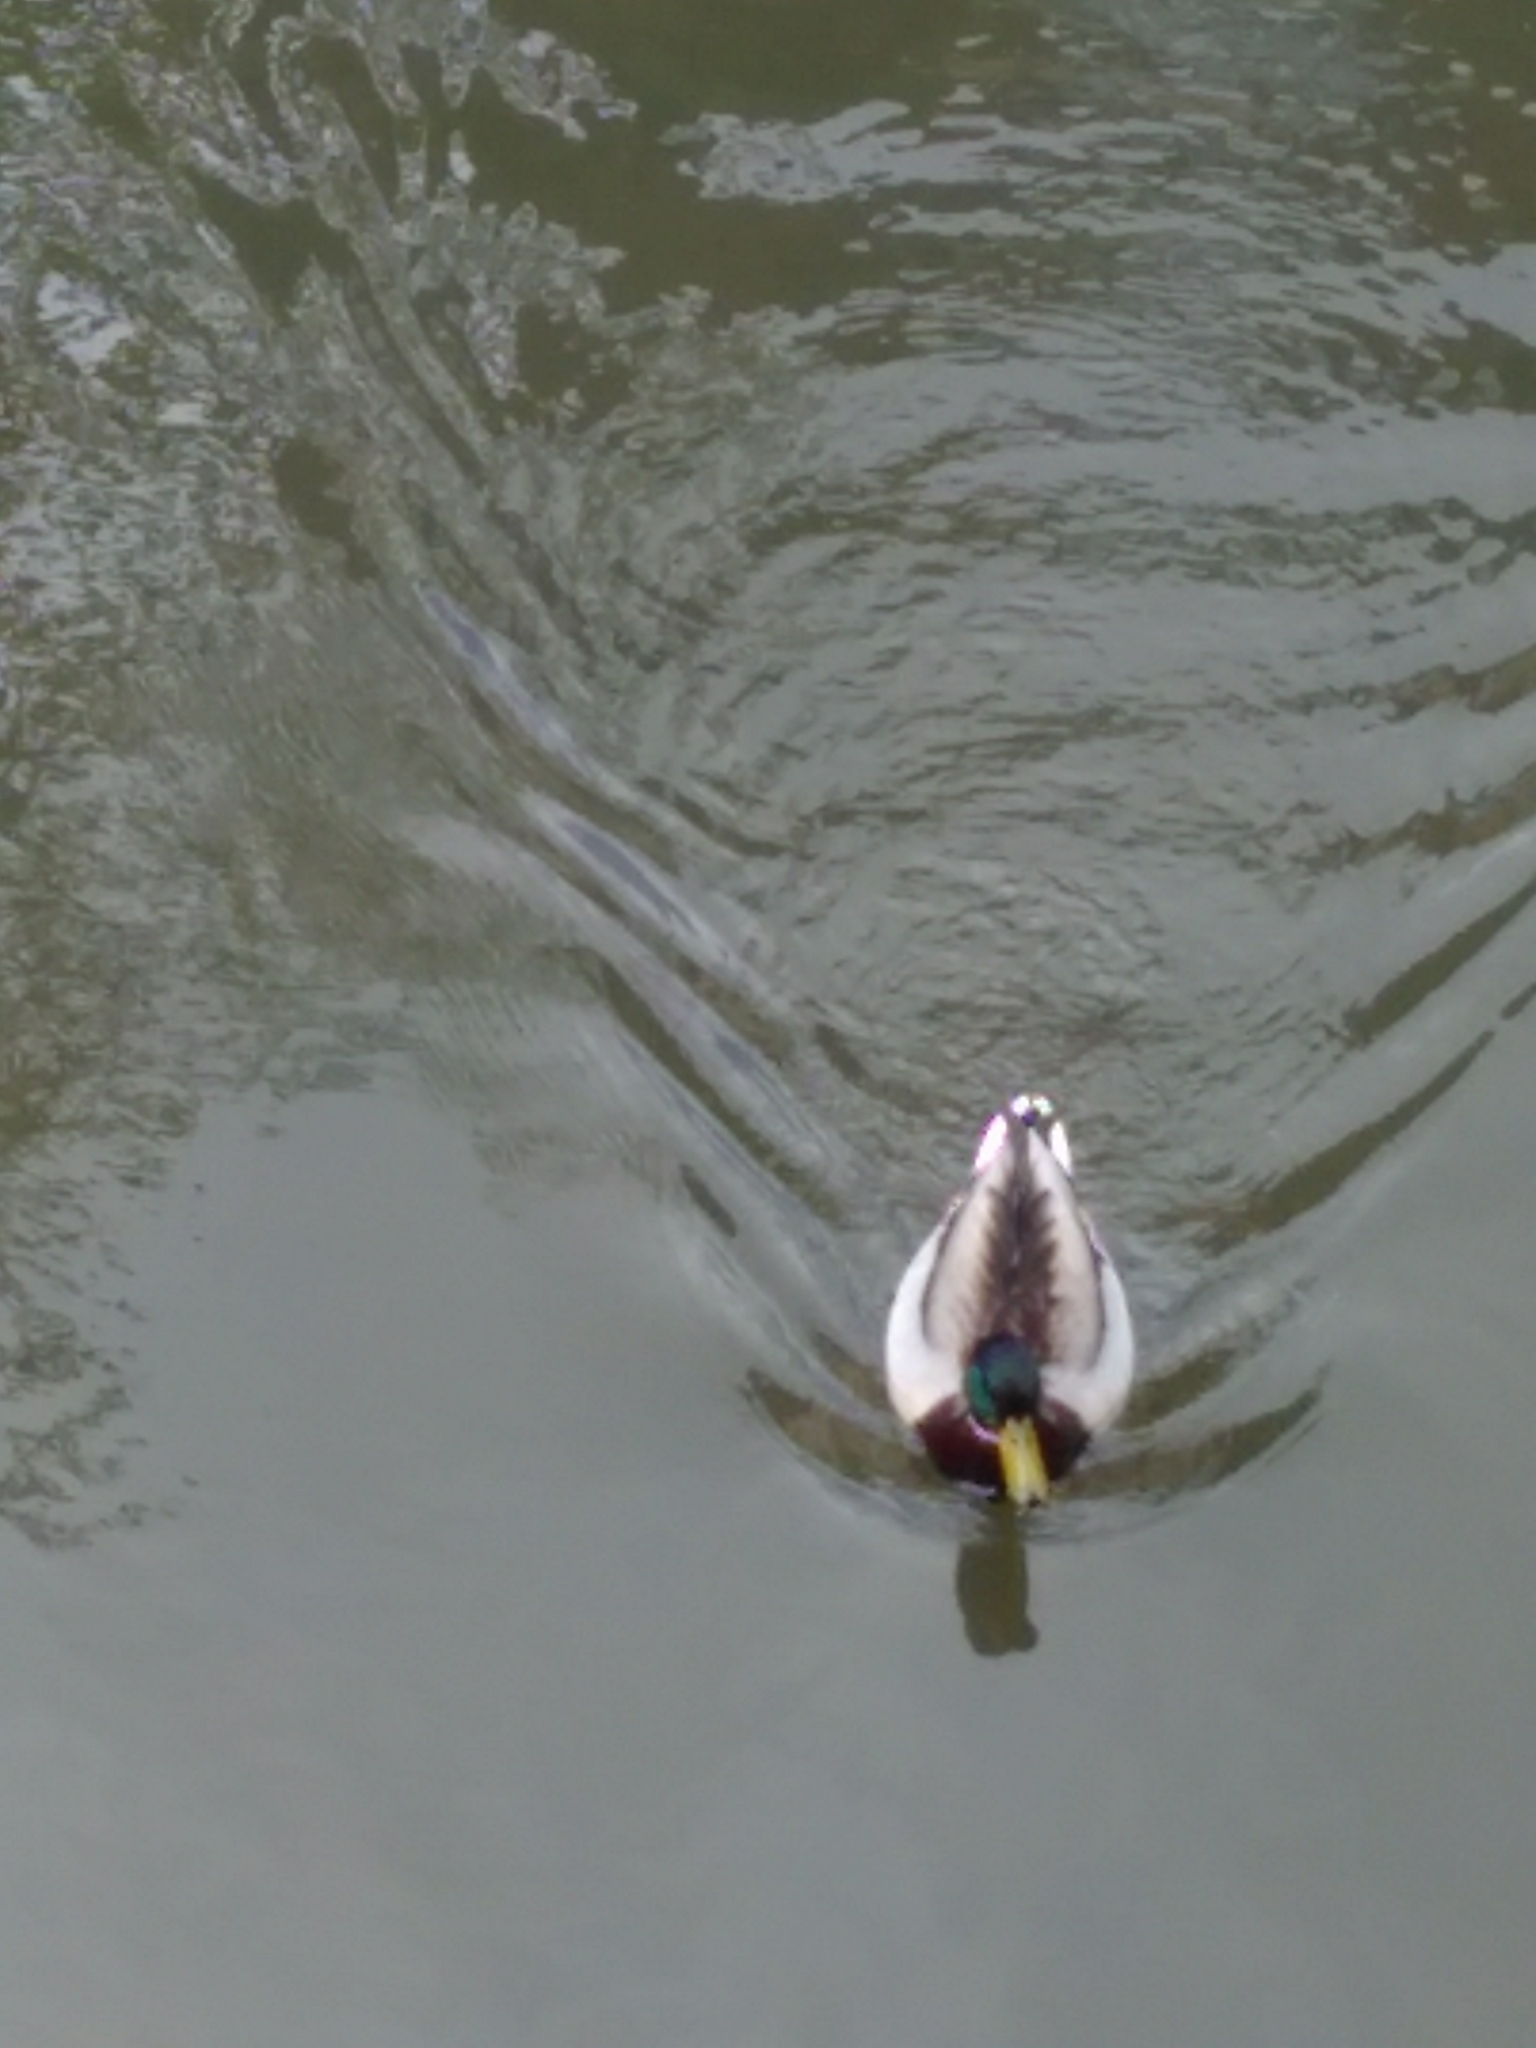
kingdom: Animalia
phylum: Chordata
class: Aves
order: Anseriformes
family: Anatidae
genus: Anas
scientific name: Anas platyrhynchos
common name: Mallard
